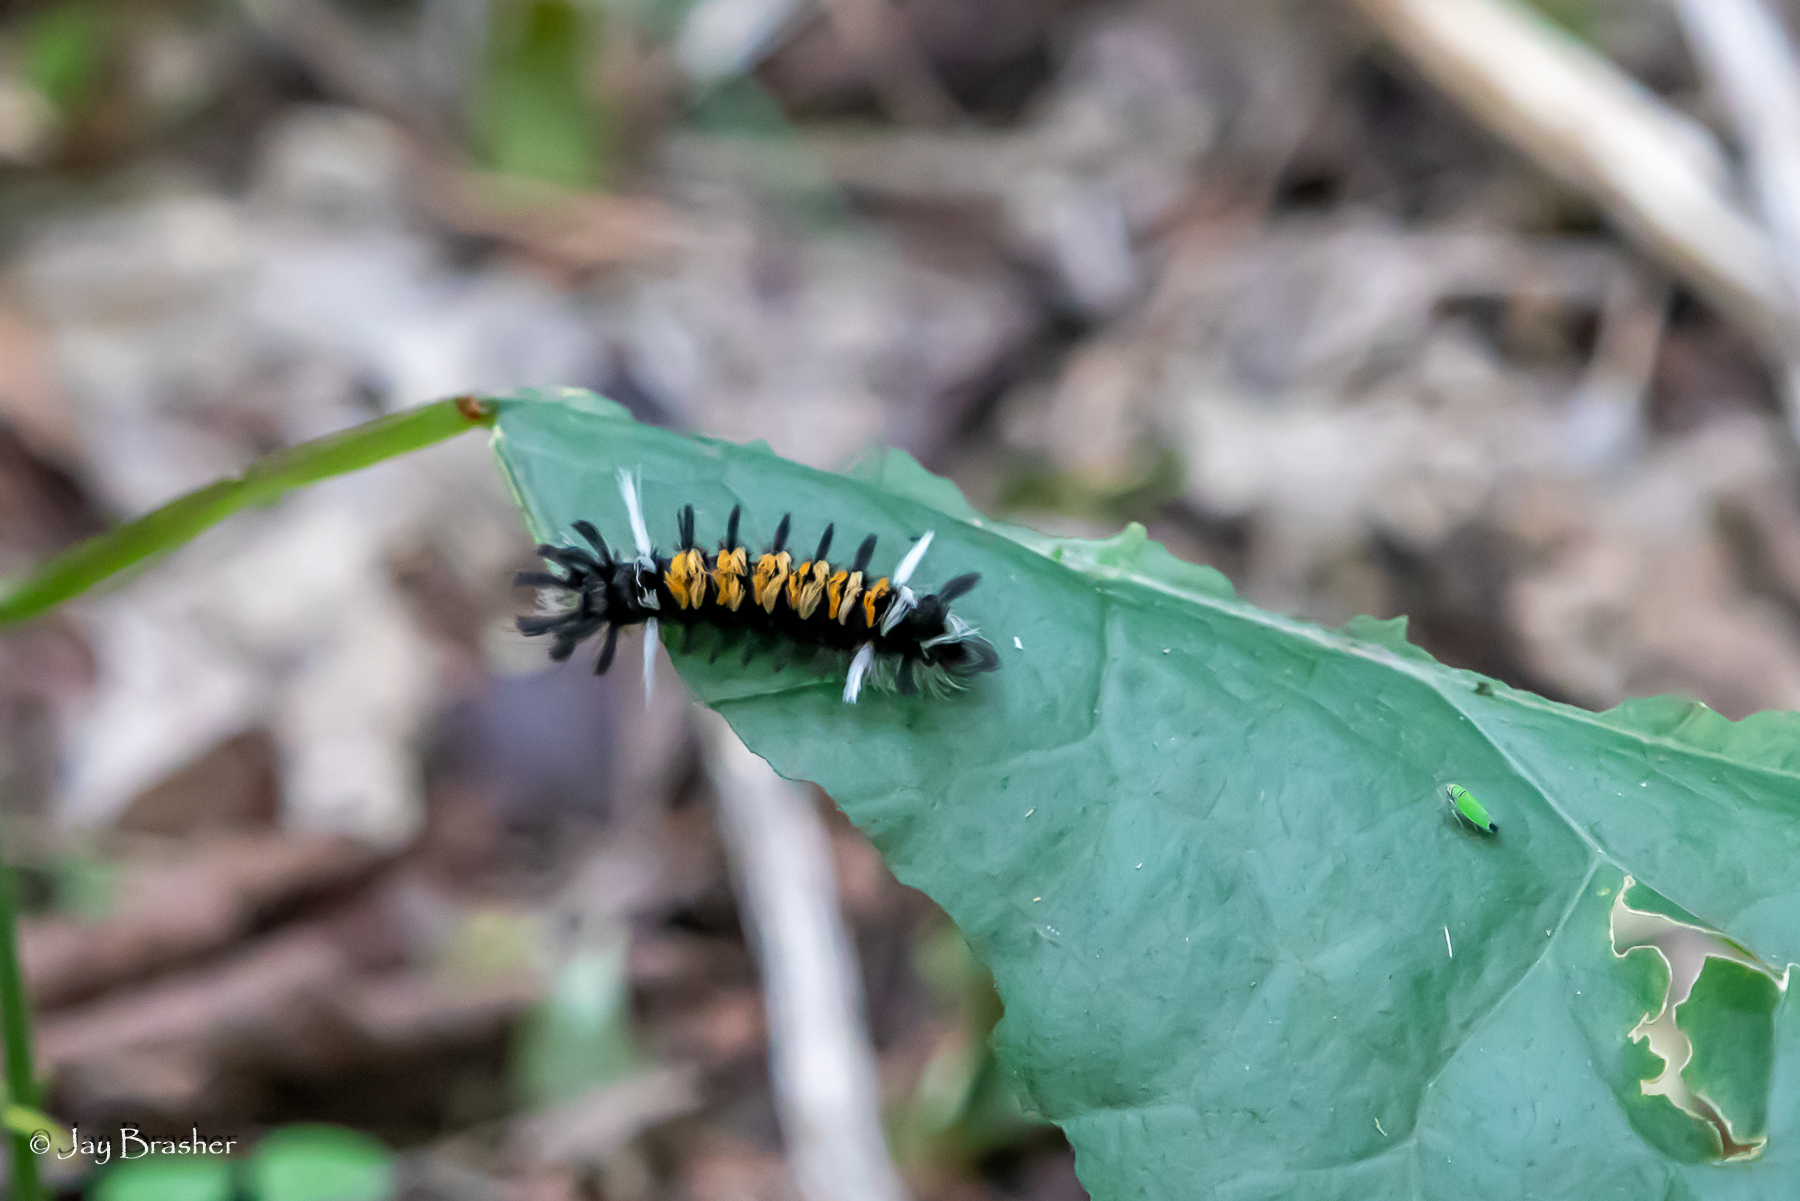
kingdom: Animalia
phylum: Arthropoda
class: Insecta
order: Lepidoptera
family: Erebidae
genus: Euchaetes
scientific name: Euchaetes egle
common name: Milkweed tussock moth
